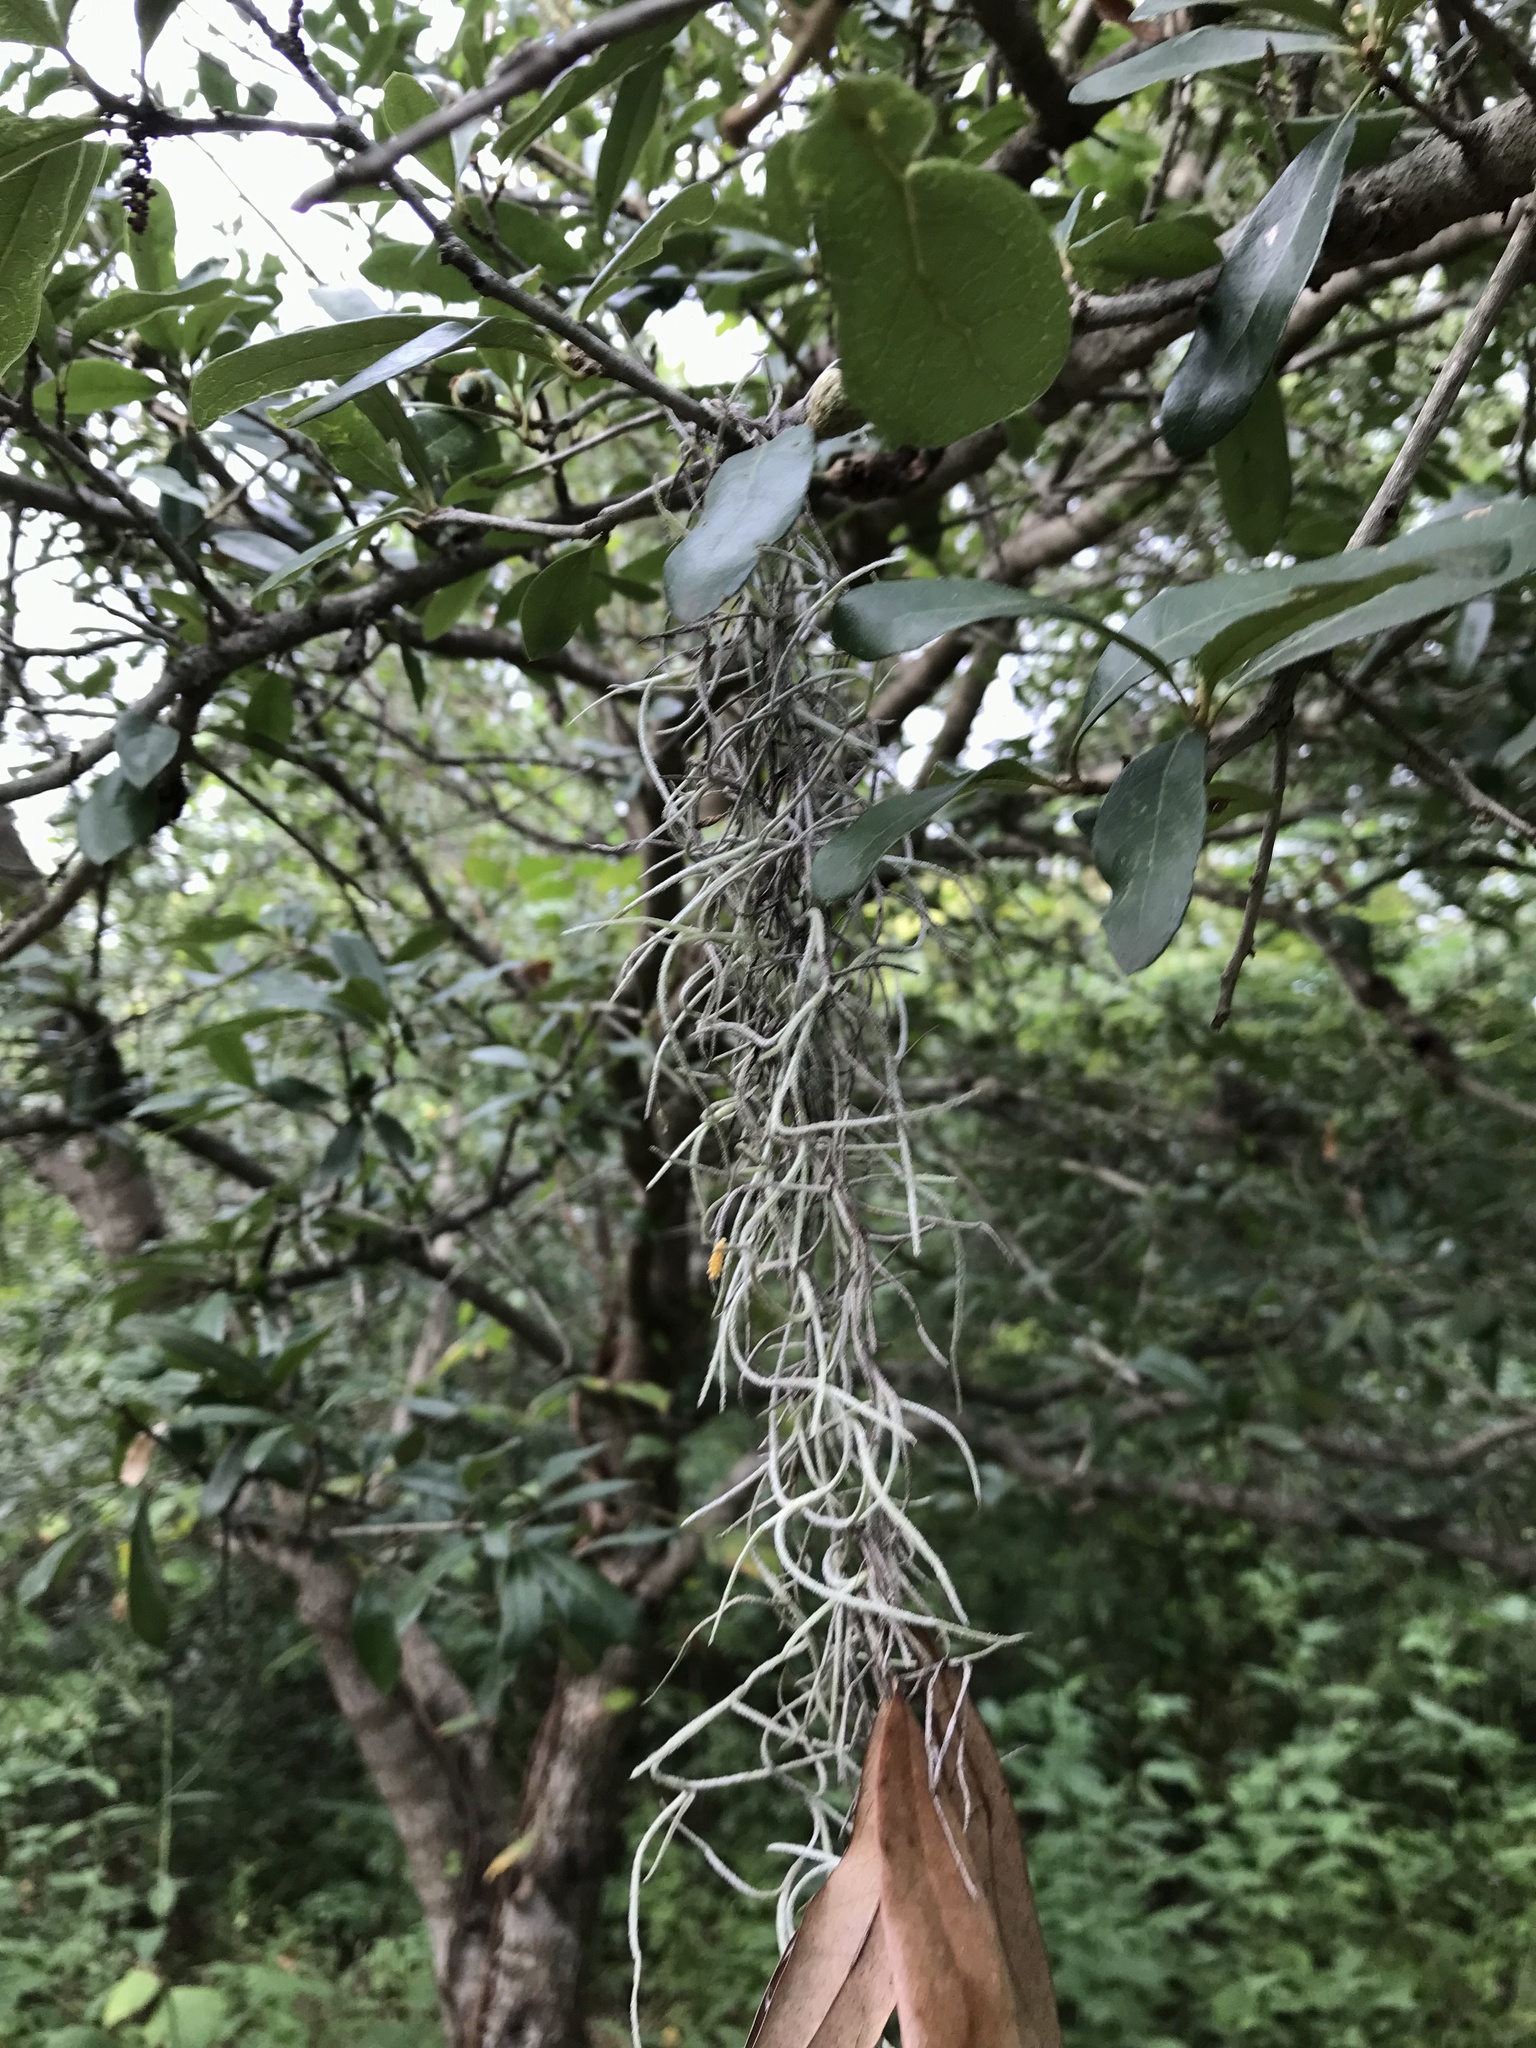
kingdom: Plantae
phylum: Tracheophyta
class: Liliopsida
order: Poales
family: Bromeliaceae
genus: Tillandsia
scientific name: Tillandsia usneoides
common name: Spanish moss
